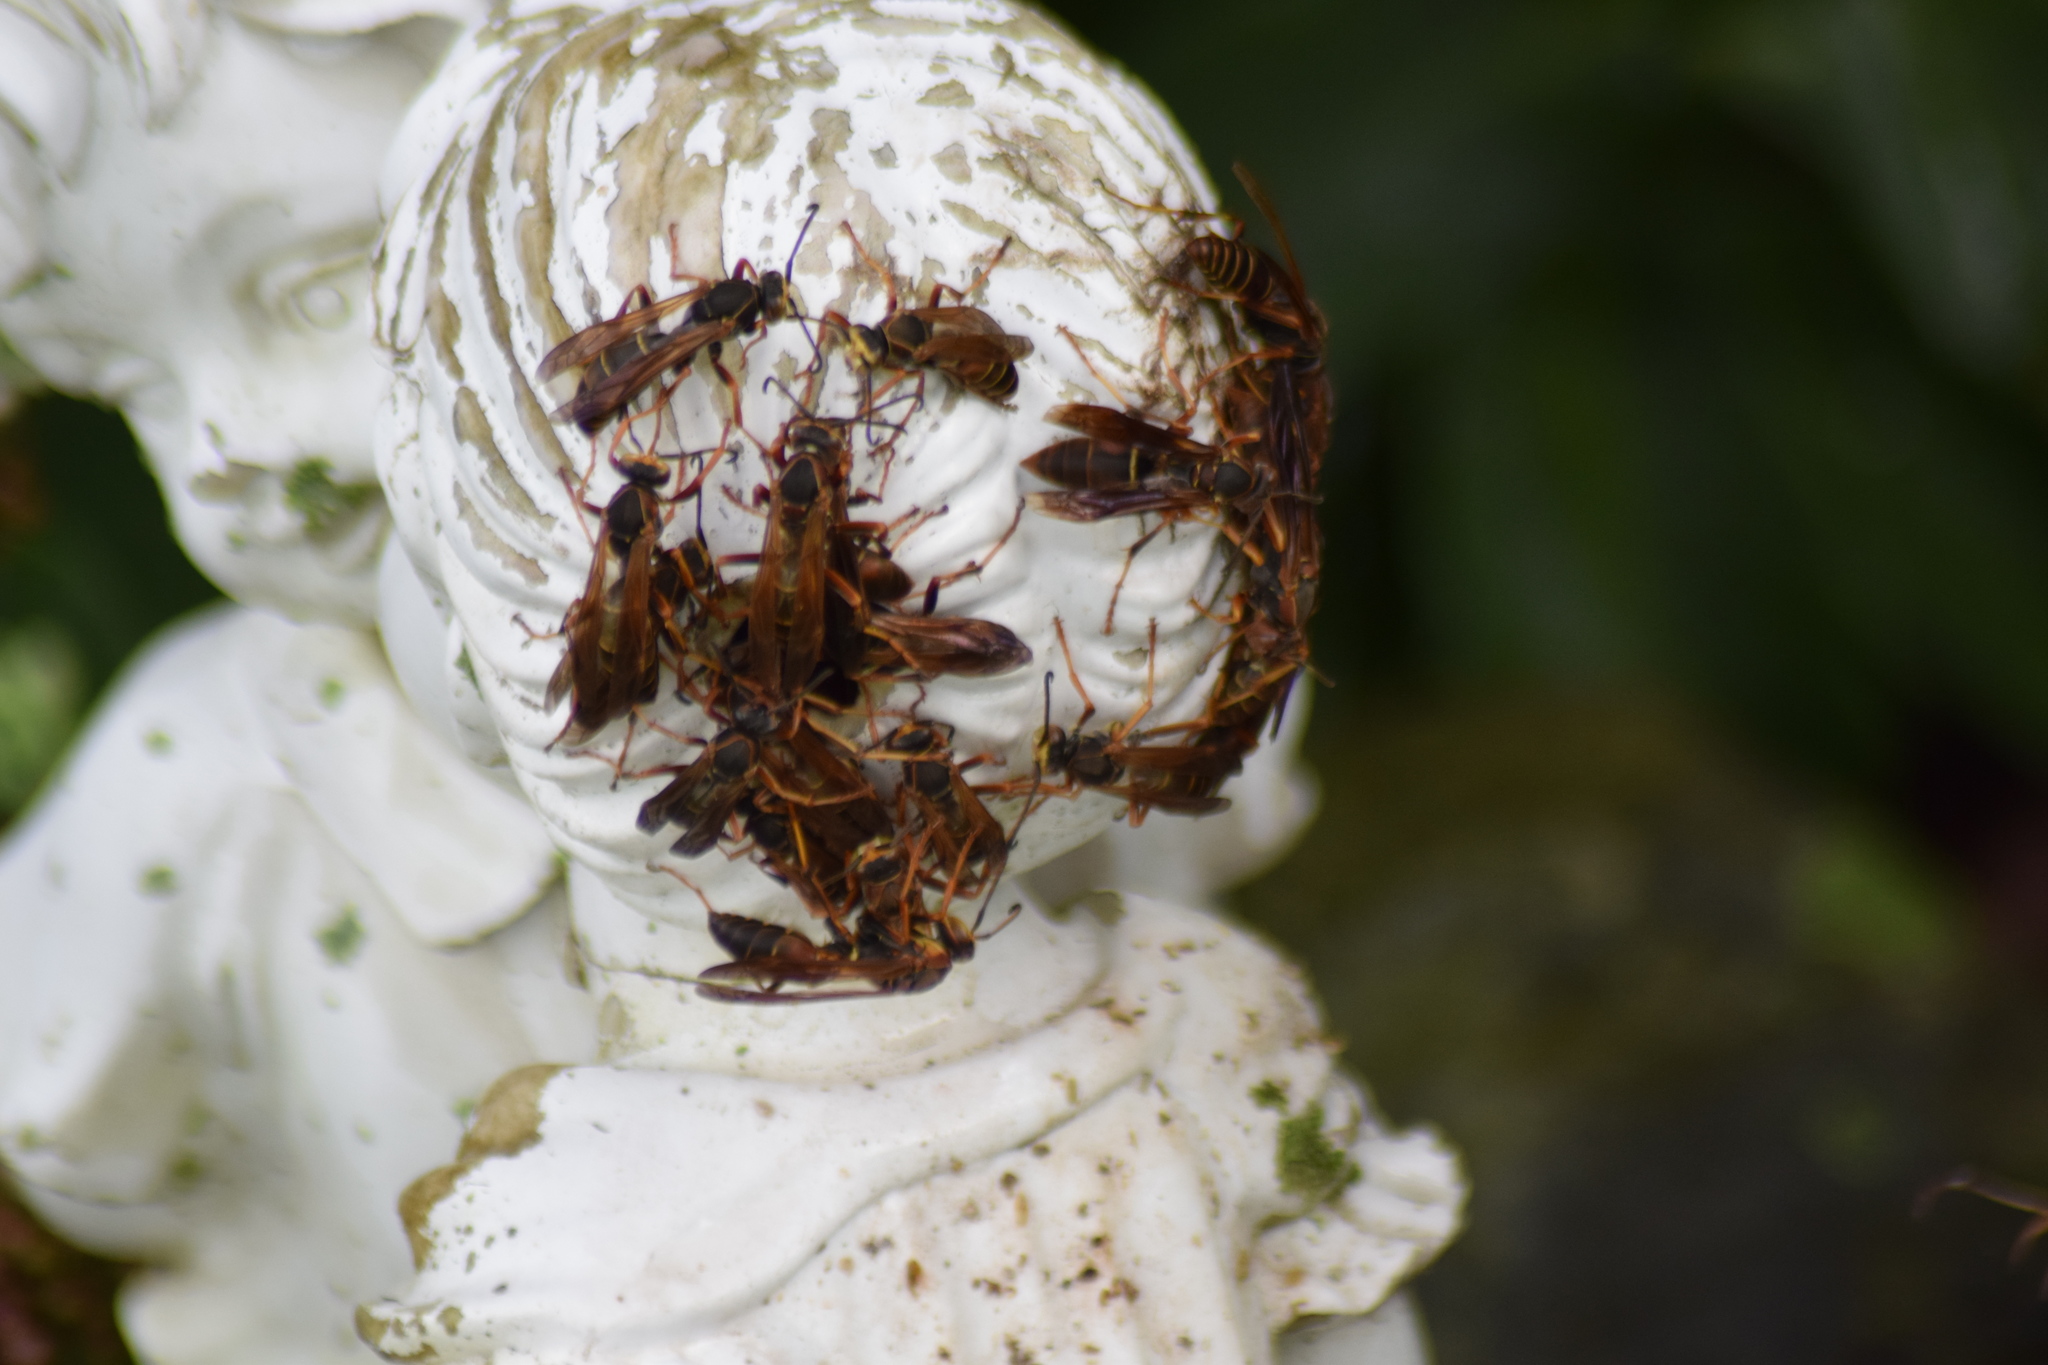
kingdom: Animalia
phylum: Arthropoda
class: Insecta
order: Hymenoptera
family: Eumenidae
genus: Polistes
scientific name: Polistes fuscatus
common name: Dark paper wasp
